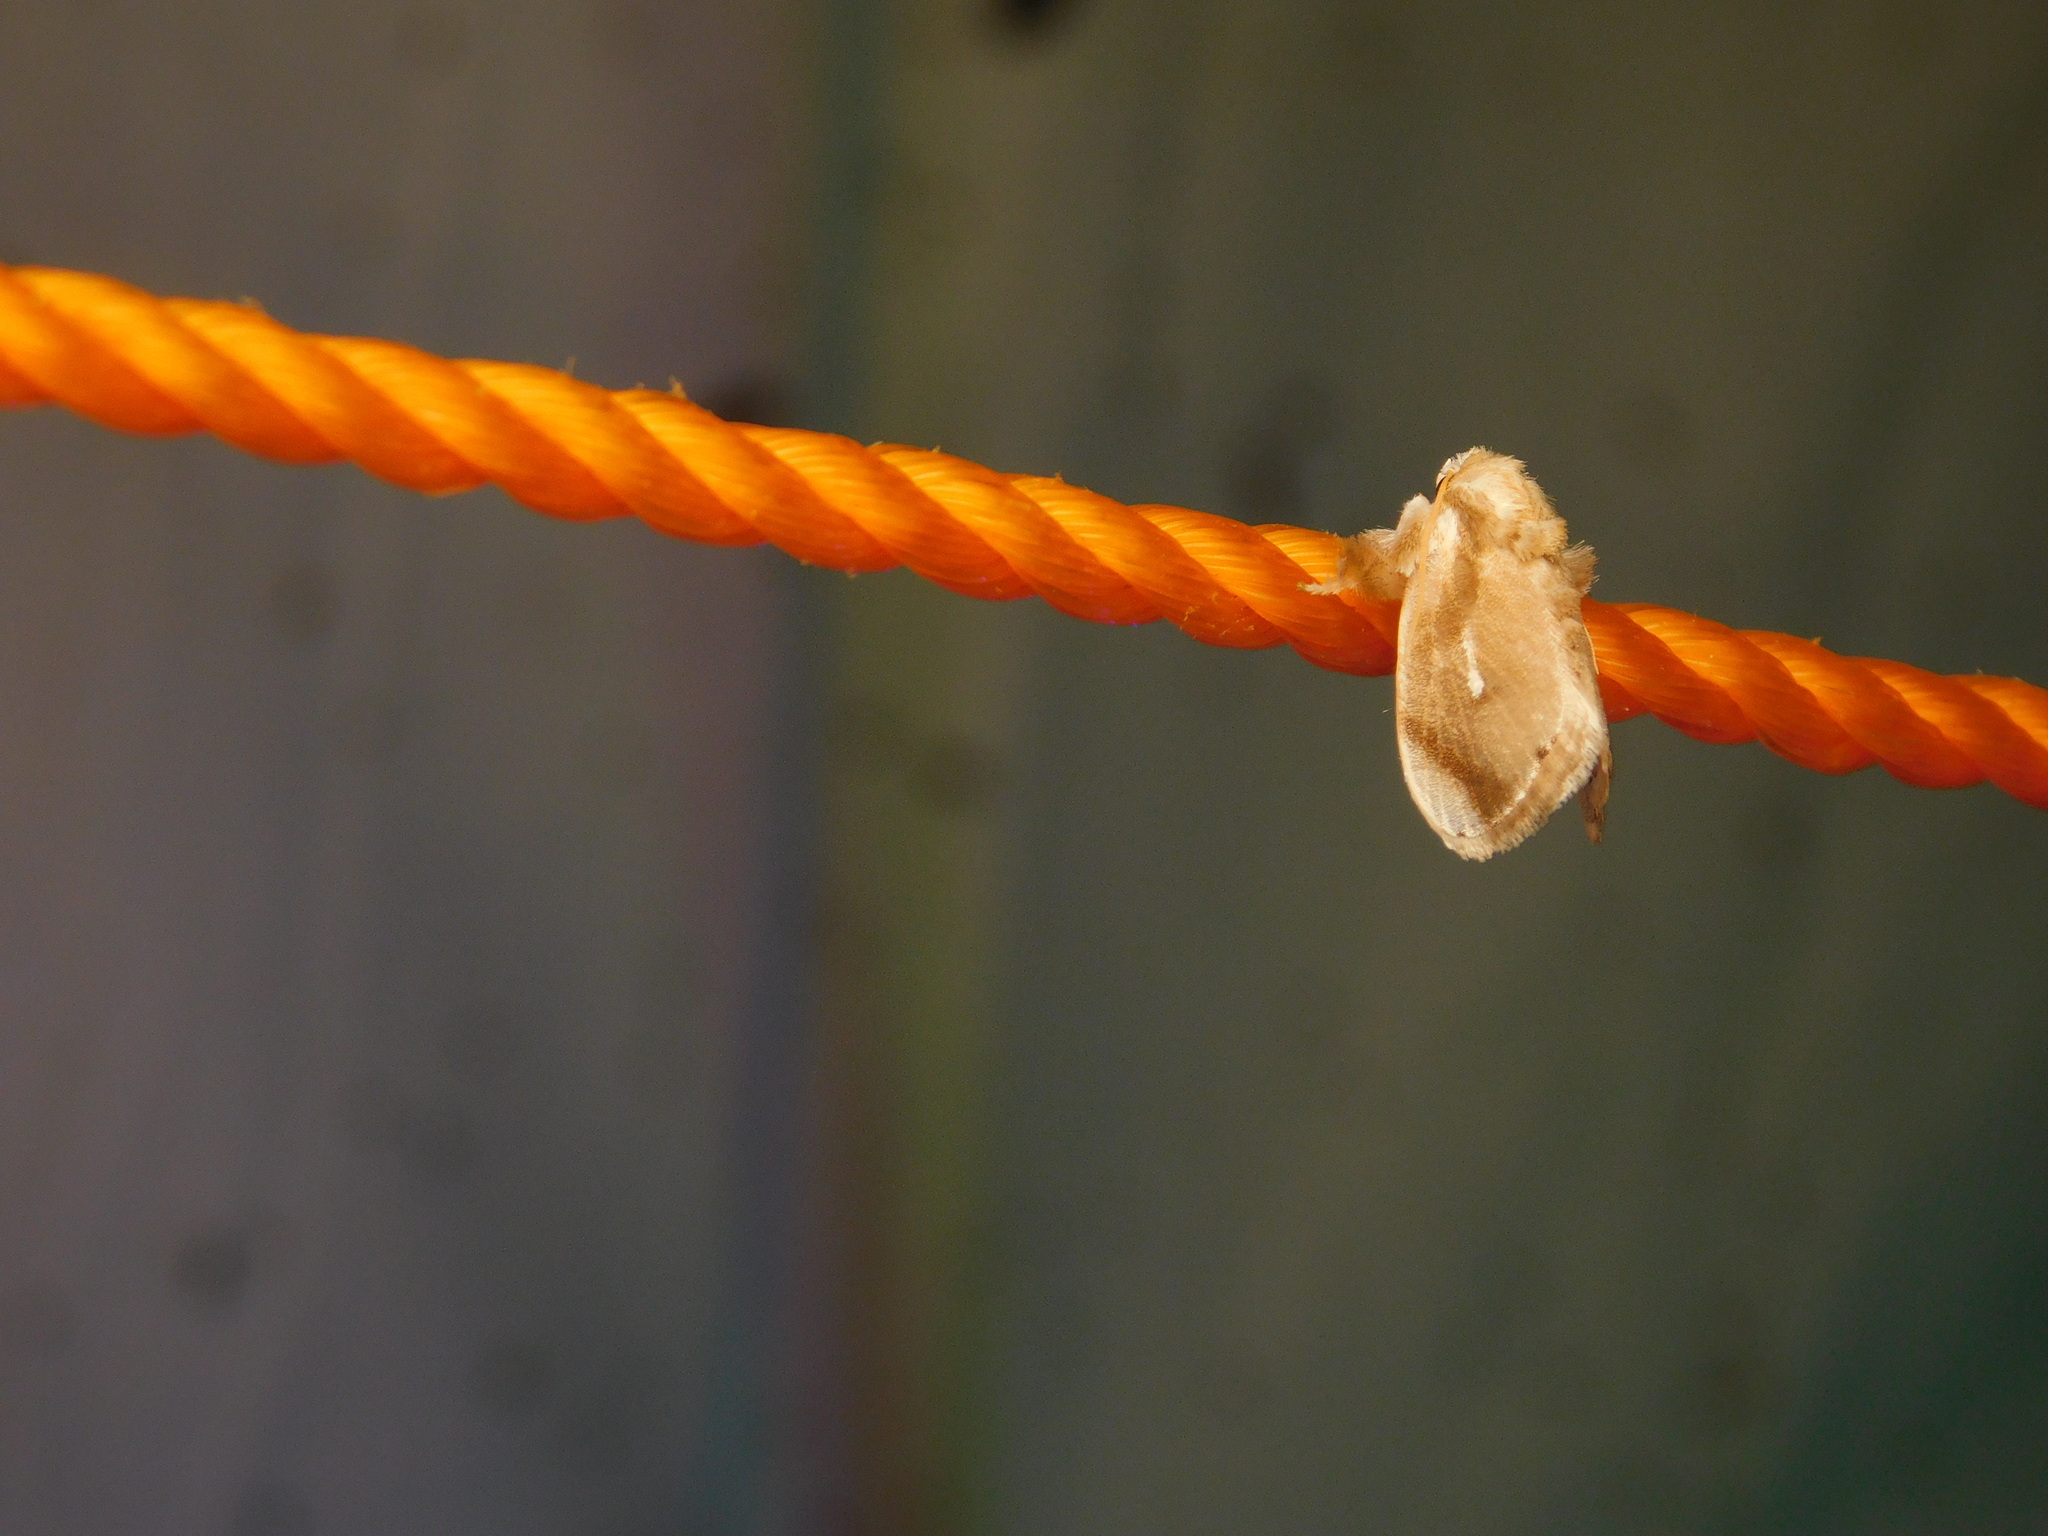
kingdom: Animalia
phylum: Arthropoda
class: Insecta
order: Lepidoptera
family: Limacodidae
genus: Narosa
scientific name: Narosa argentipuncta
